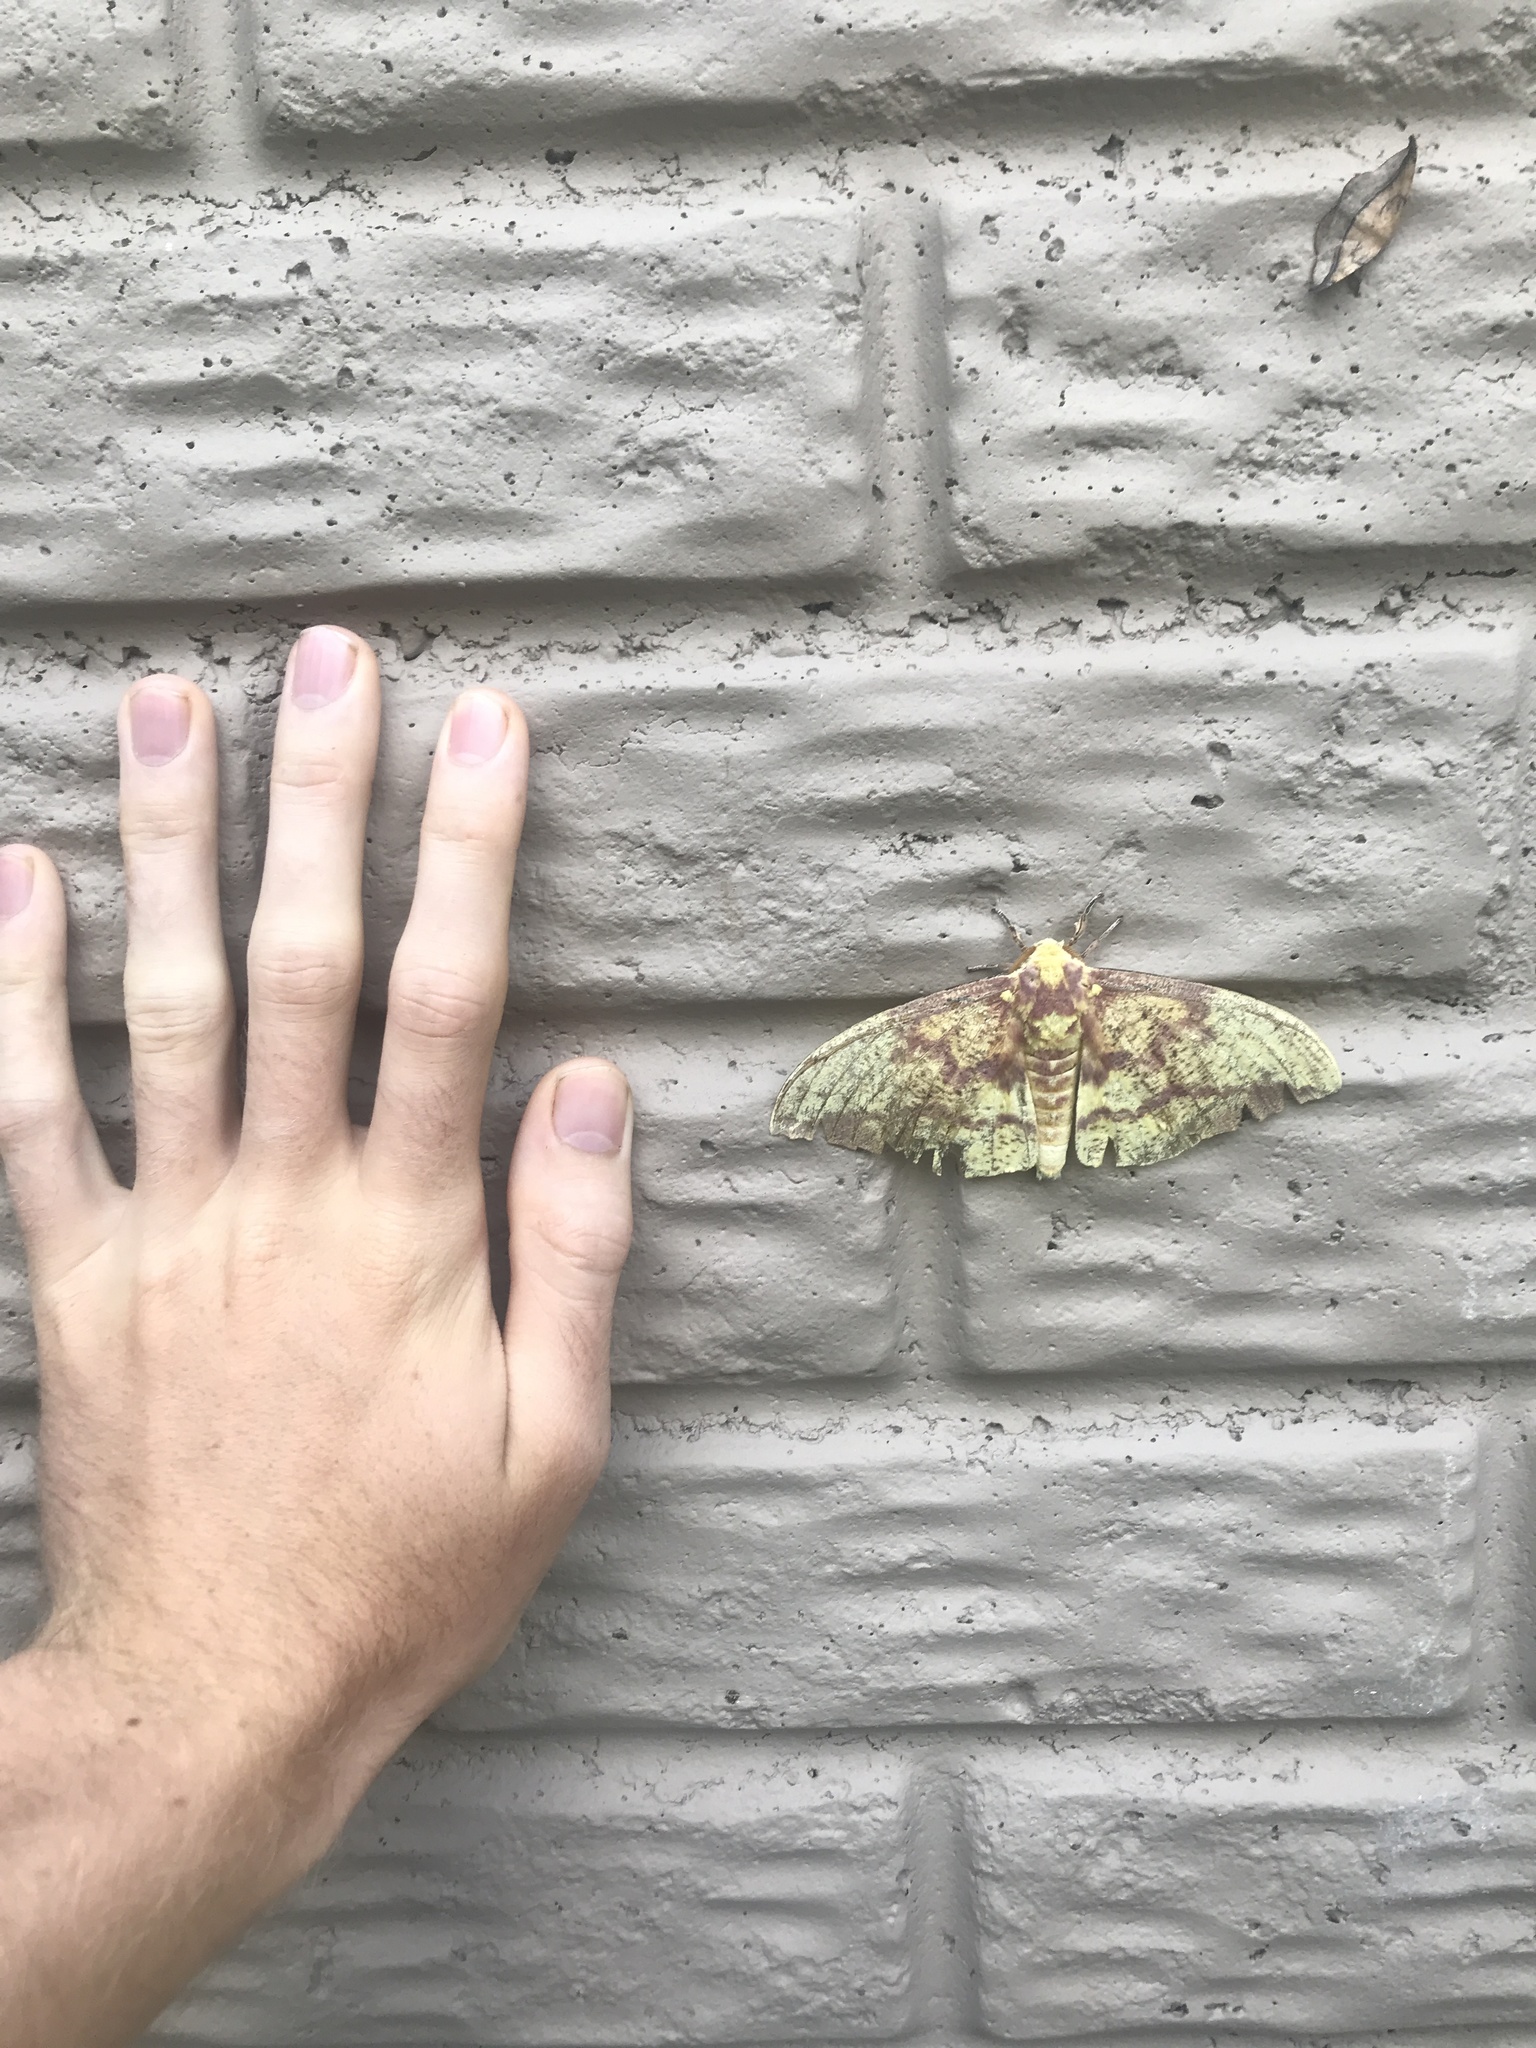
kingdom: Animalia
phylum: Arthropoda
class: Insecta
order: Lepidoptera
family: Saturniidae
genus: Eacles
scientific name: Eacles imperialis
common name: Imperial moth
